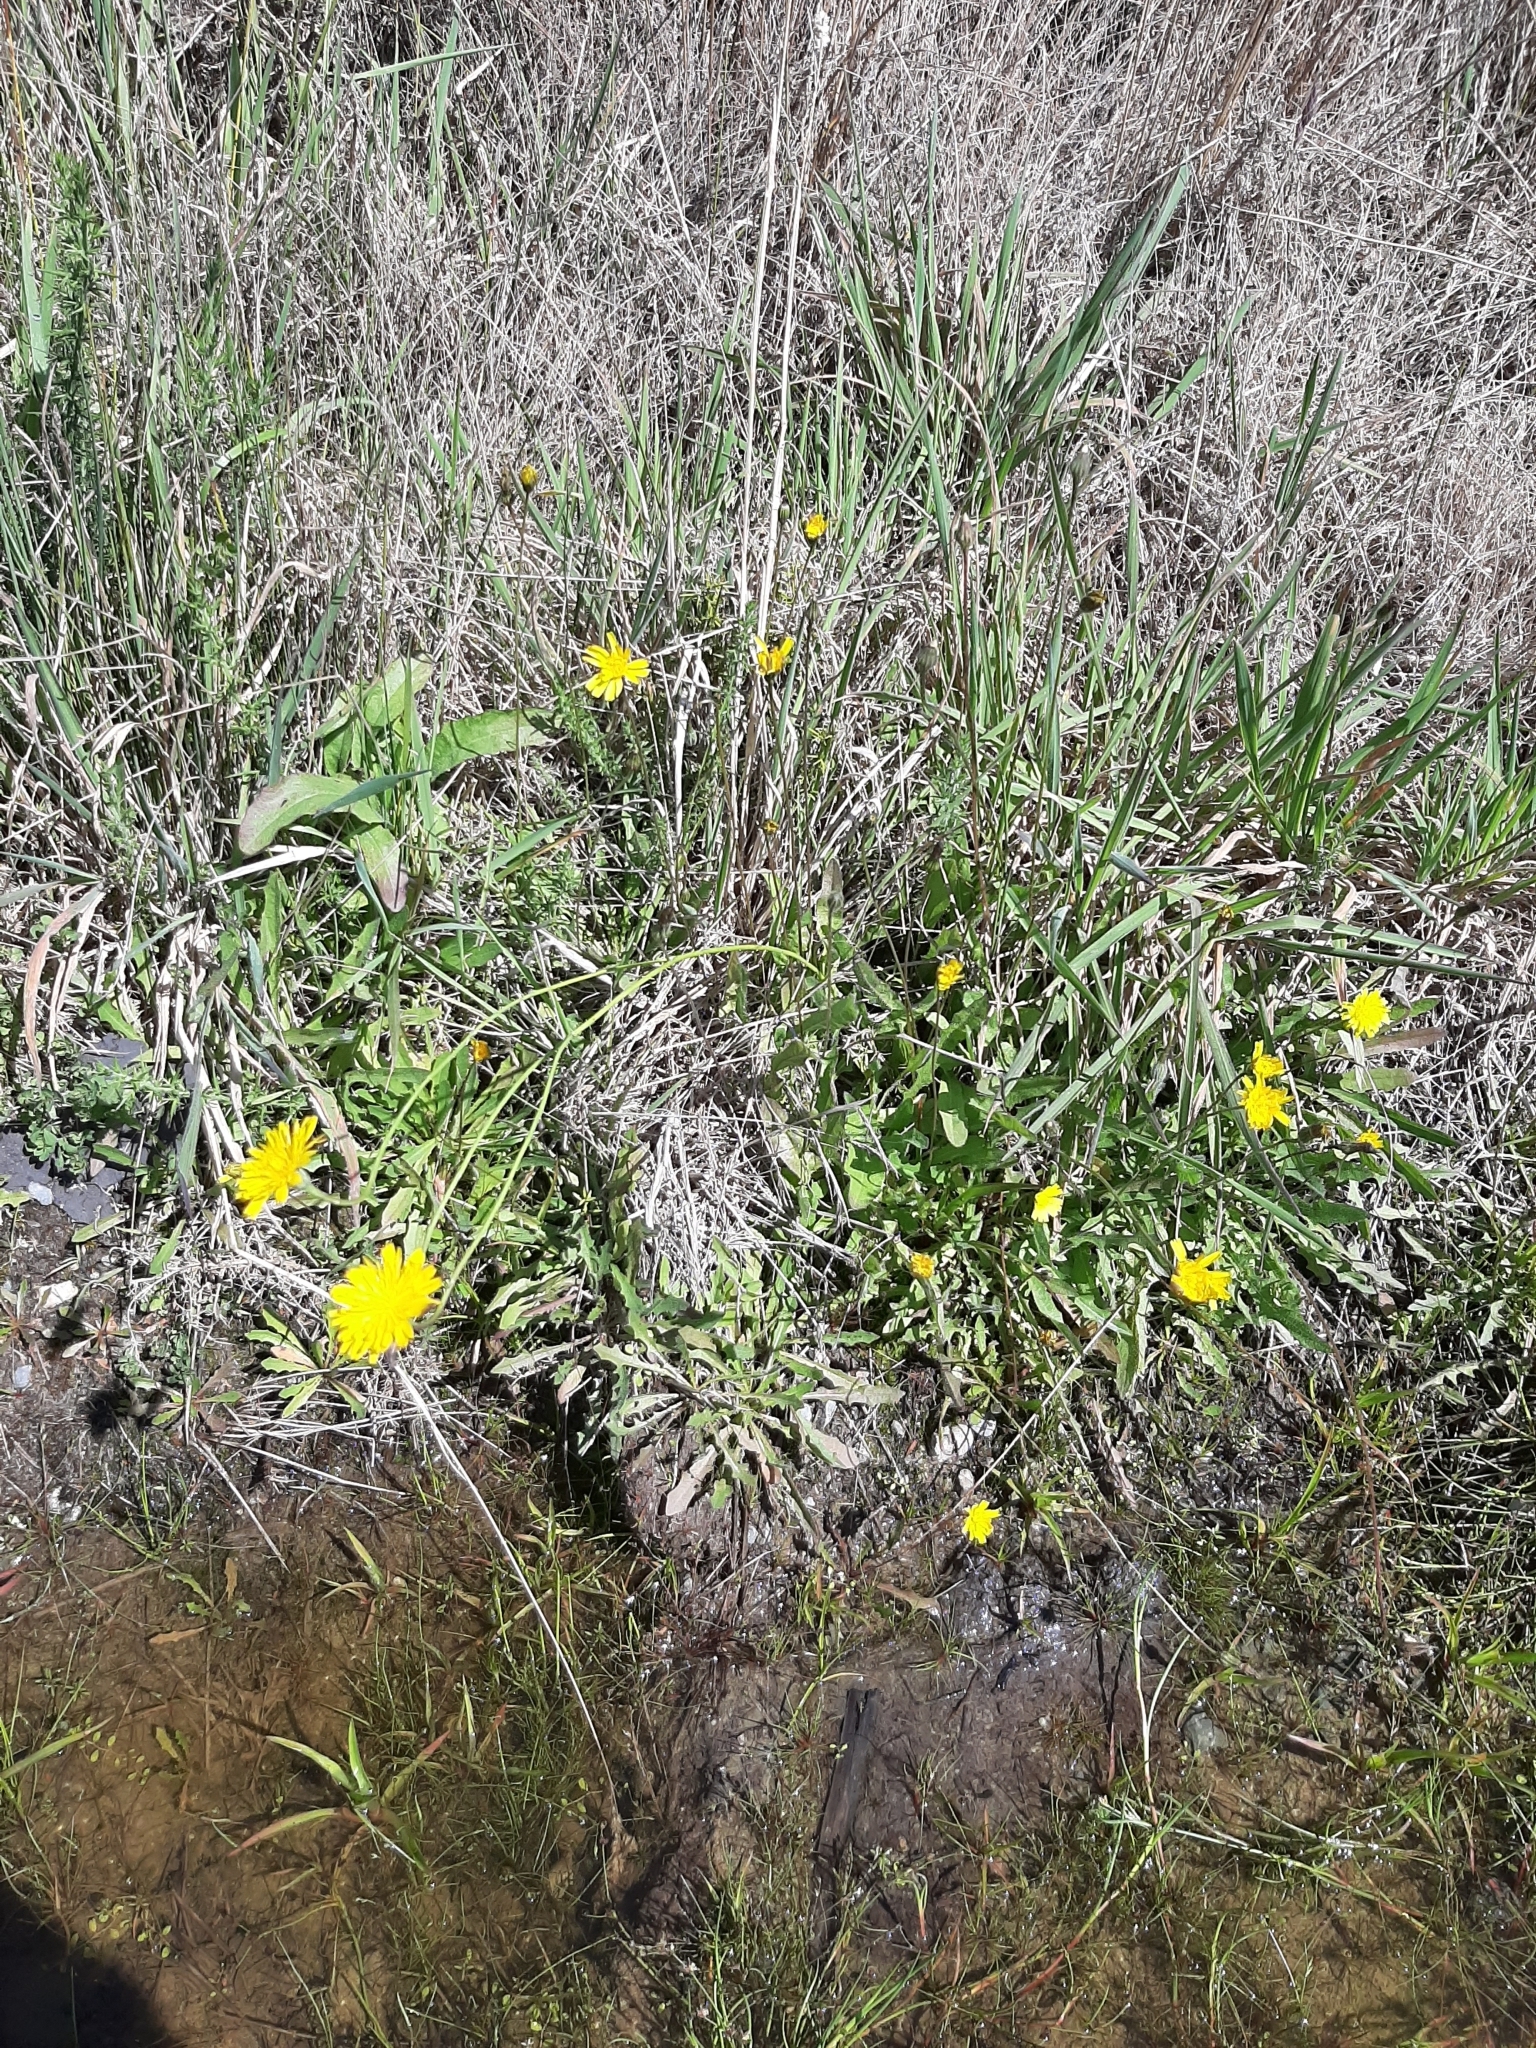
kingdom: Plantae
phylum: Tracheophyta
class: Magnoliopsida
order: Asterales
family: Asteraceae
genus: Hypochaeris
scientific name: Hypochaeris radicata
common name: Flatweed
